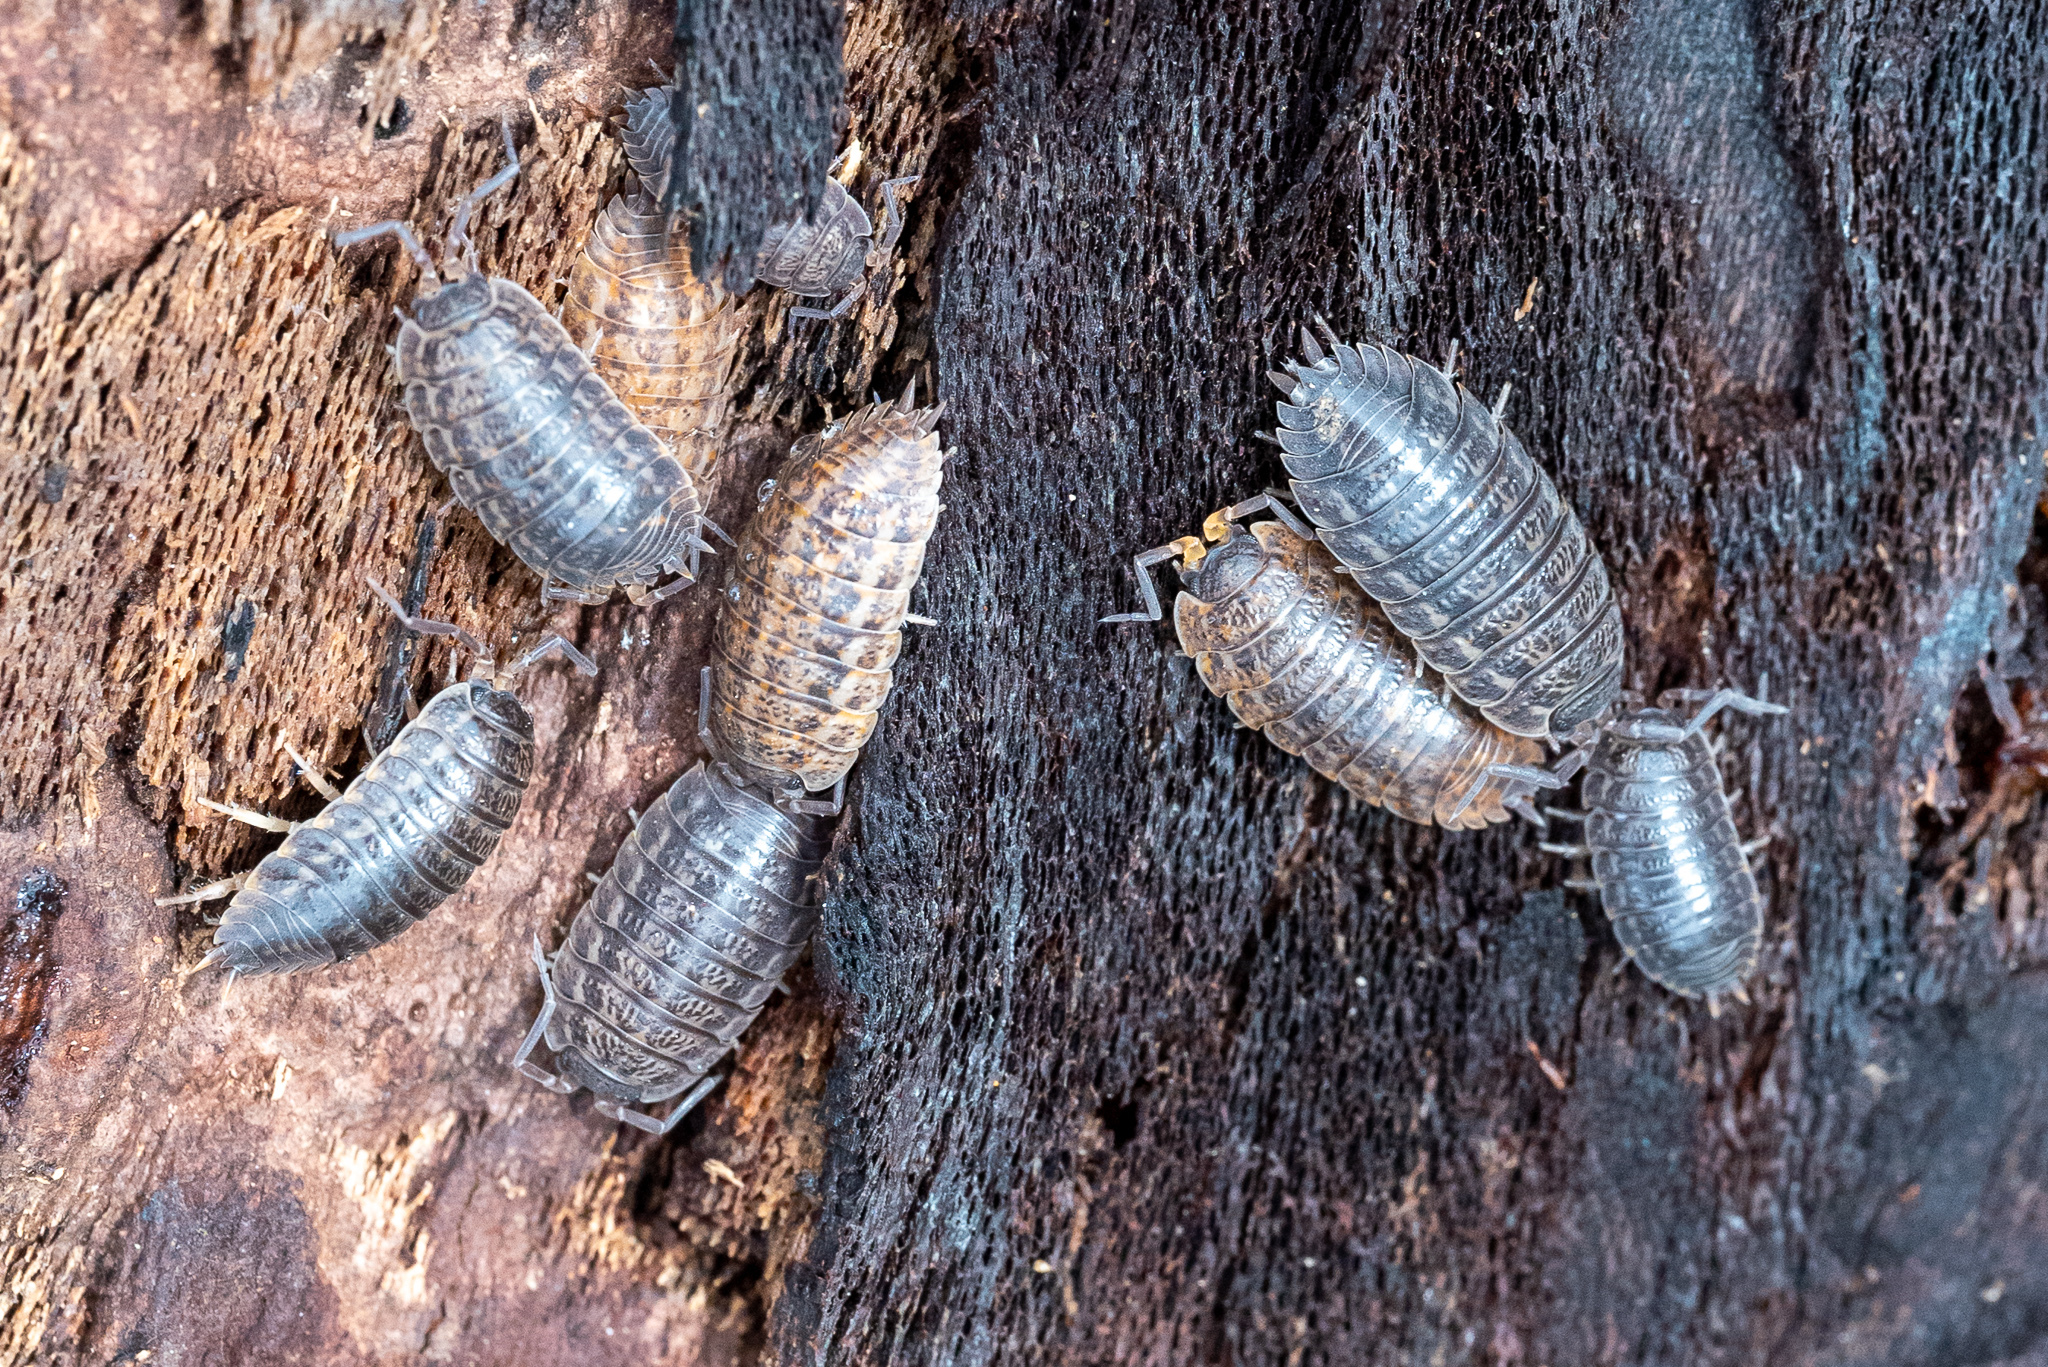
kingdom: Animalia
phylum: Arthropoda
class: Malacostraca
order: Isopoda
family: Trachelipodidae
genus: Trachelipus
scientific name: Trachelipus rathkii
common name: Isopod
